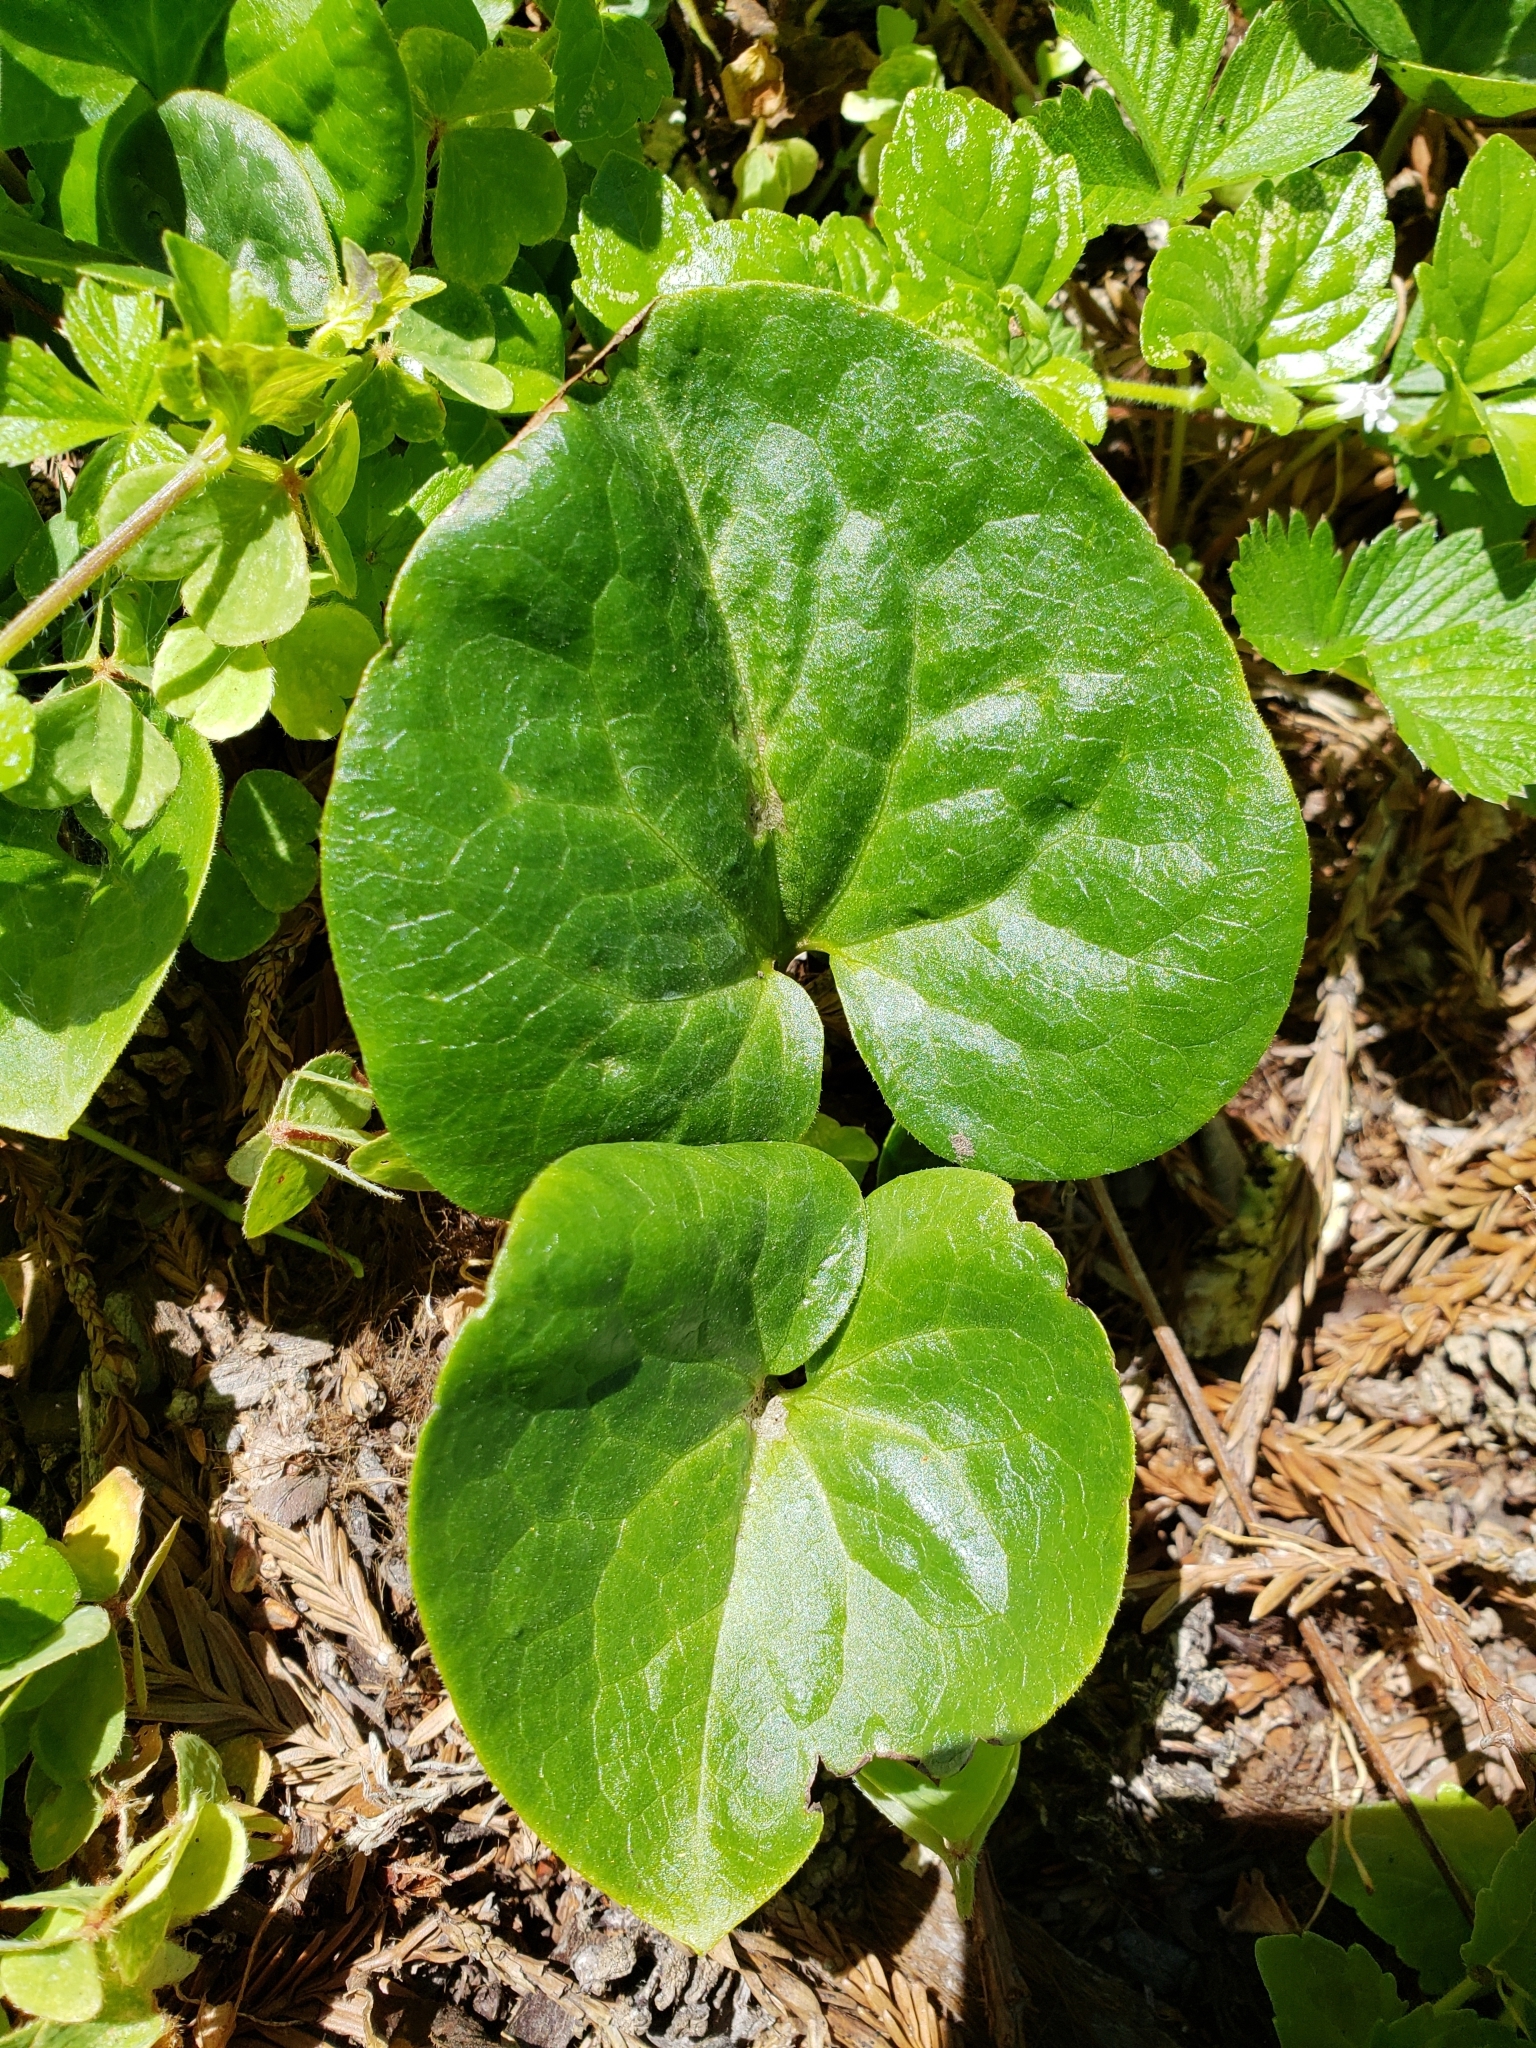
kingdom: Plantae
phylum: Tracheophyta
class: Magnoliopsida
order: Piperales
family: Aristolochiaceae
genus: Asarum
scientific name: Asarum caudatum
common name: Wild ginger
